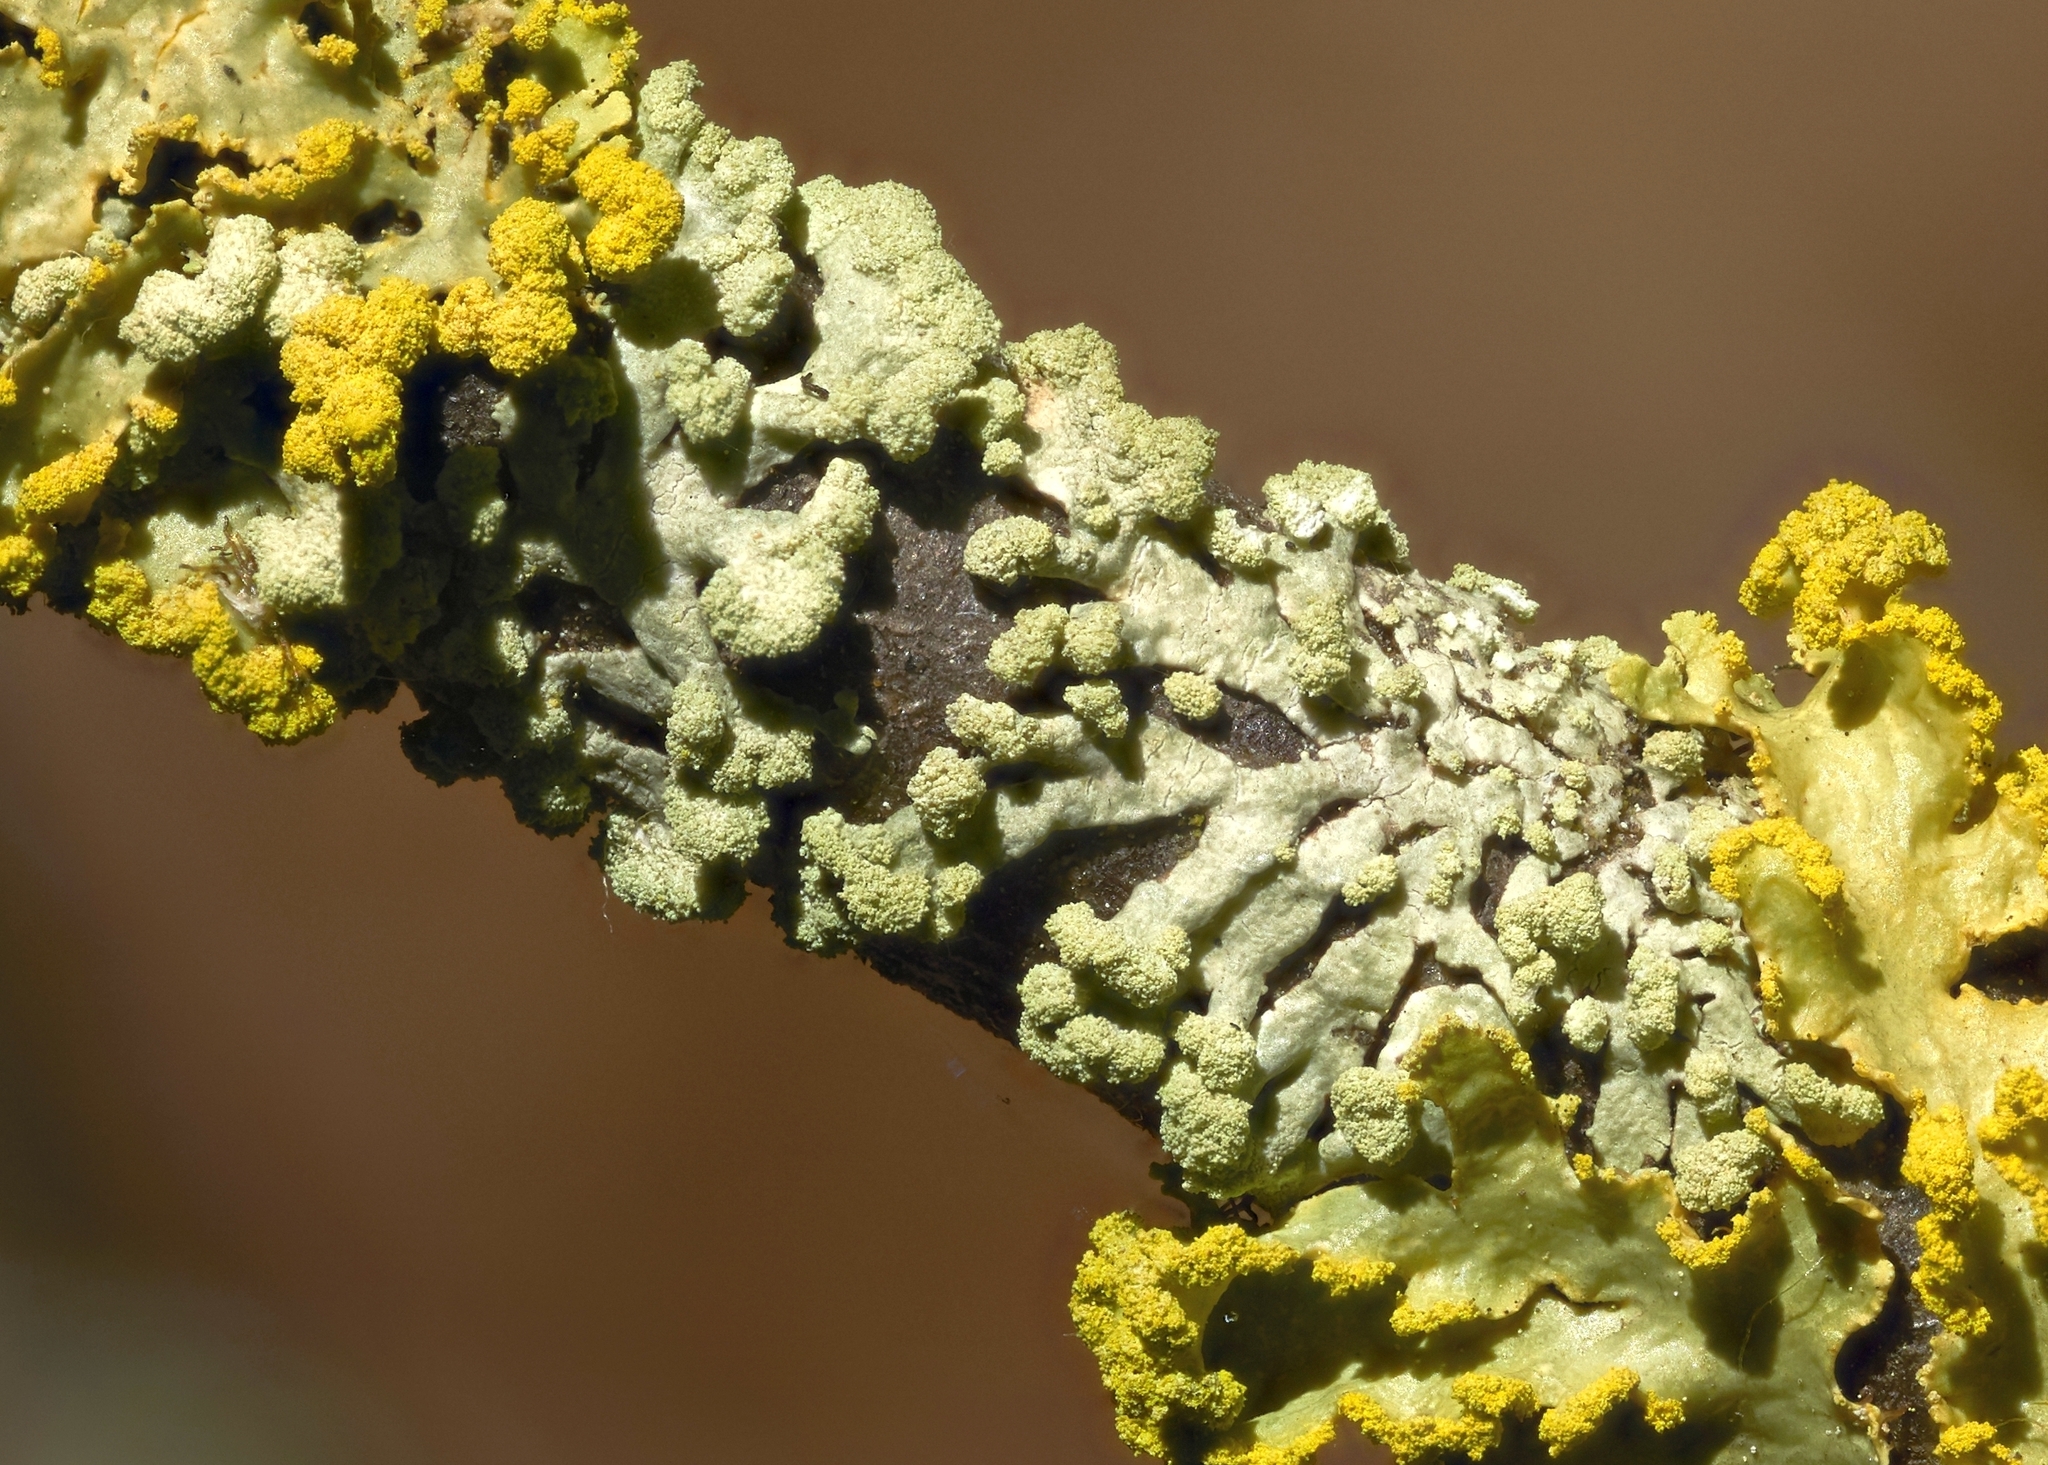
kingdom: Fungi
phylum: Ascomycota
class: Lecanoromycetes
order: Lecanorales
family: Parmeliaceae
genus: Parmeliopsis
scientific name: Parmeliopsis
